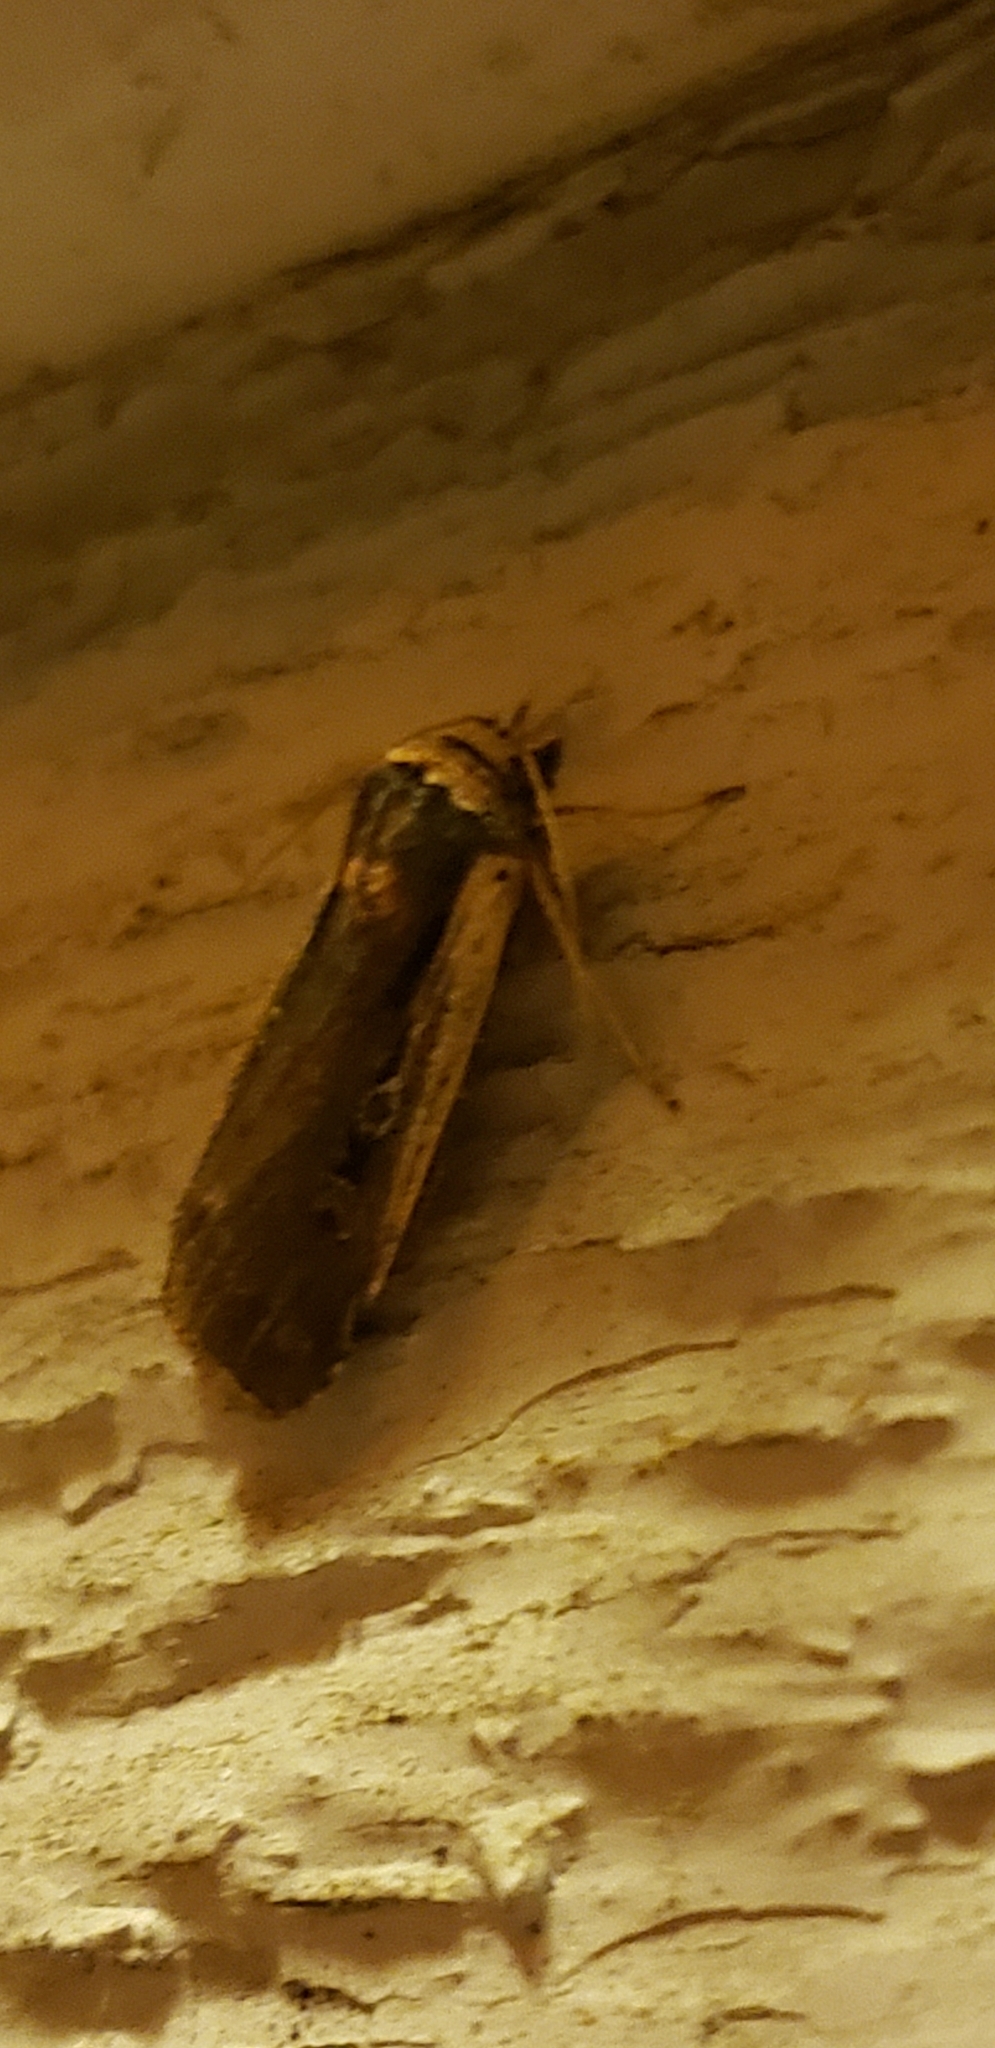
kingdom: Animalia
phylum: Arthropoda
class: Insecta
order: Lepidoptera
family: Noctuidae
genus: Ochropleura
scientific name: Ochropleura implecta
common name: Flame-shouldered dart
